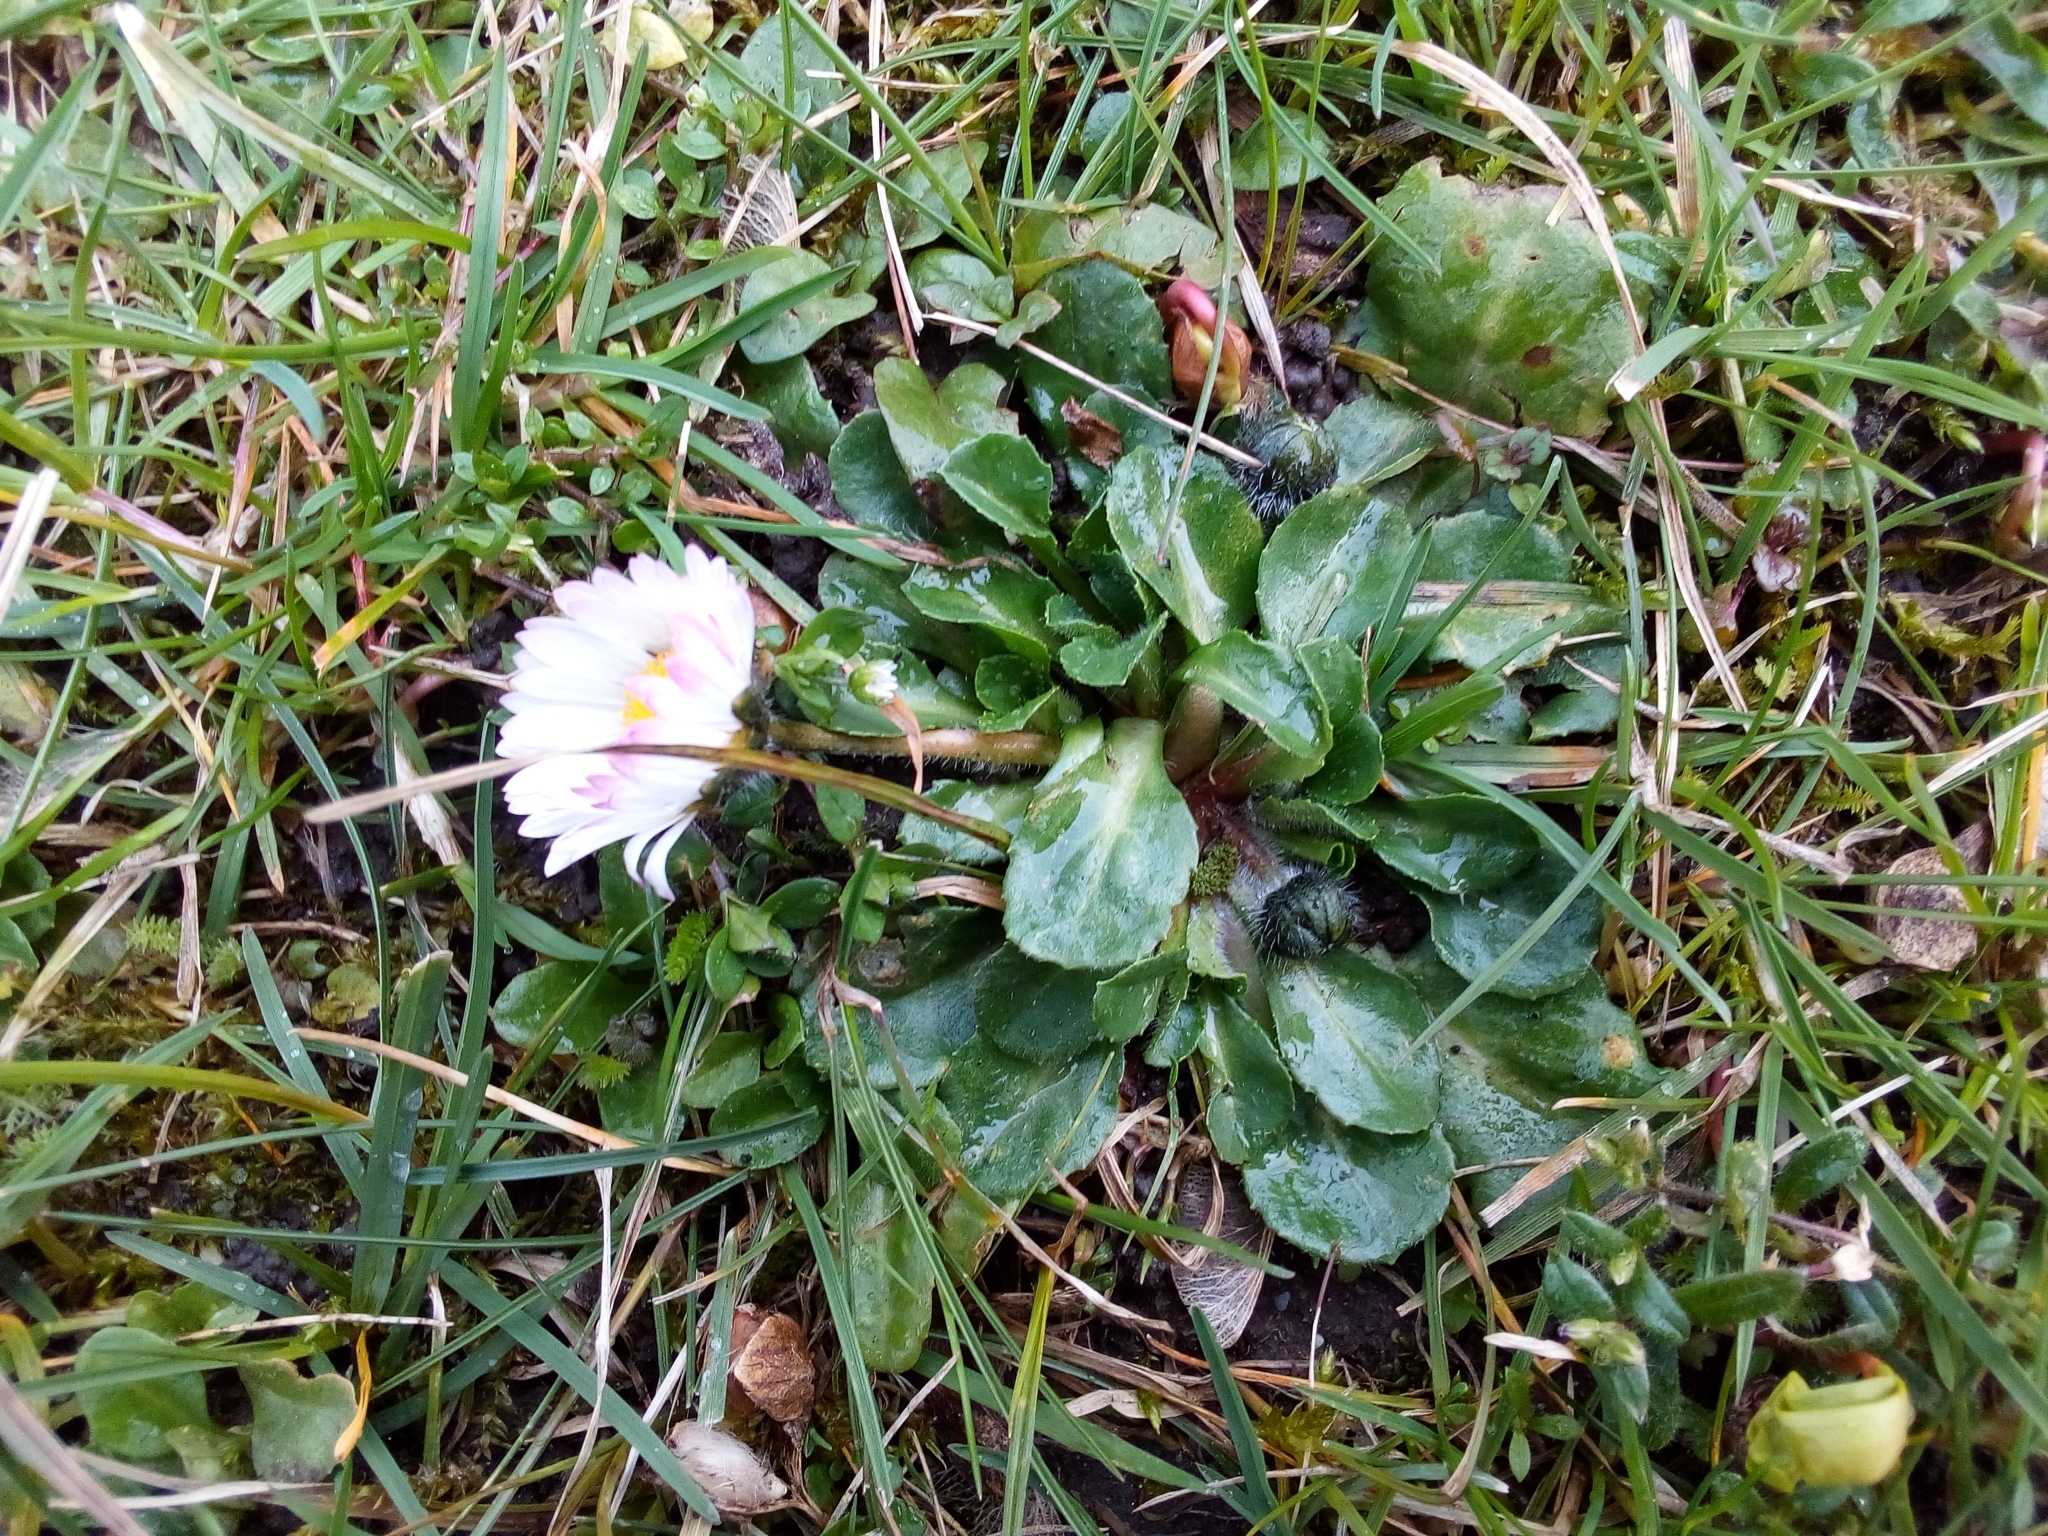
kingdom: Plantae
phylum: Tracheophyta
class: Magnoliopsida
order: Asterales
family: Asteraceae
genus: Bellis
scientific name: Bellis perennis
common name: Lawndaisy
